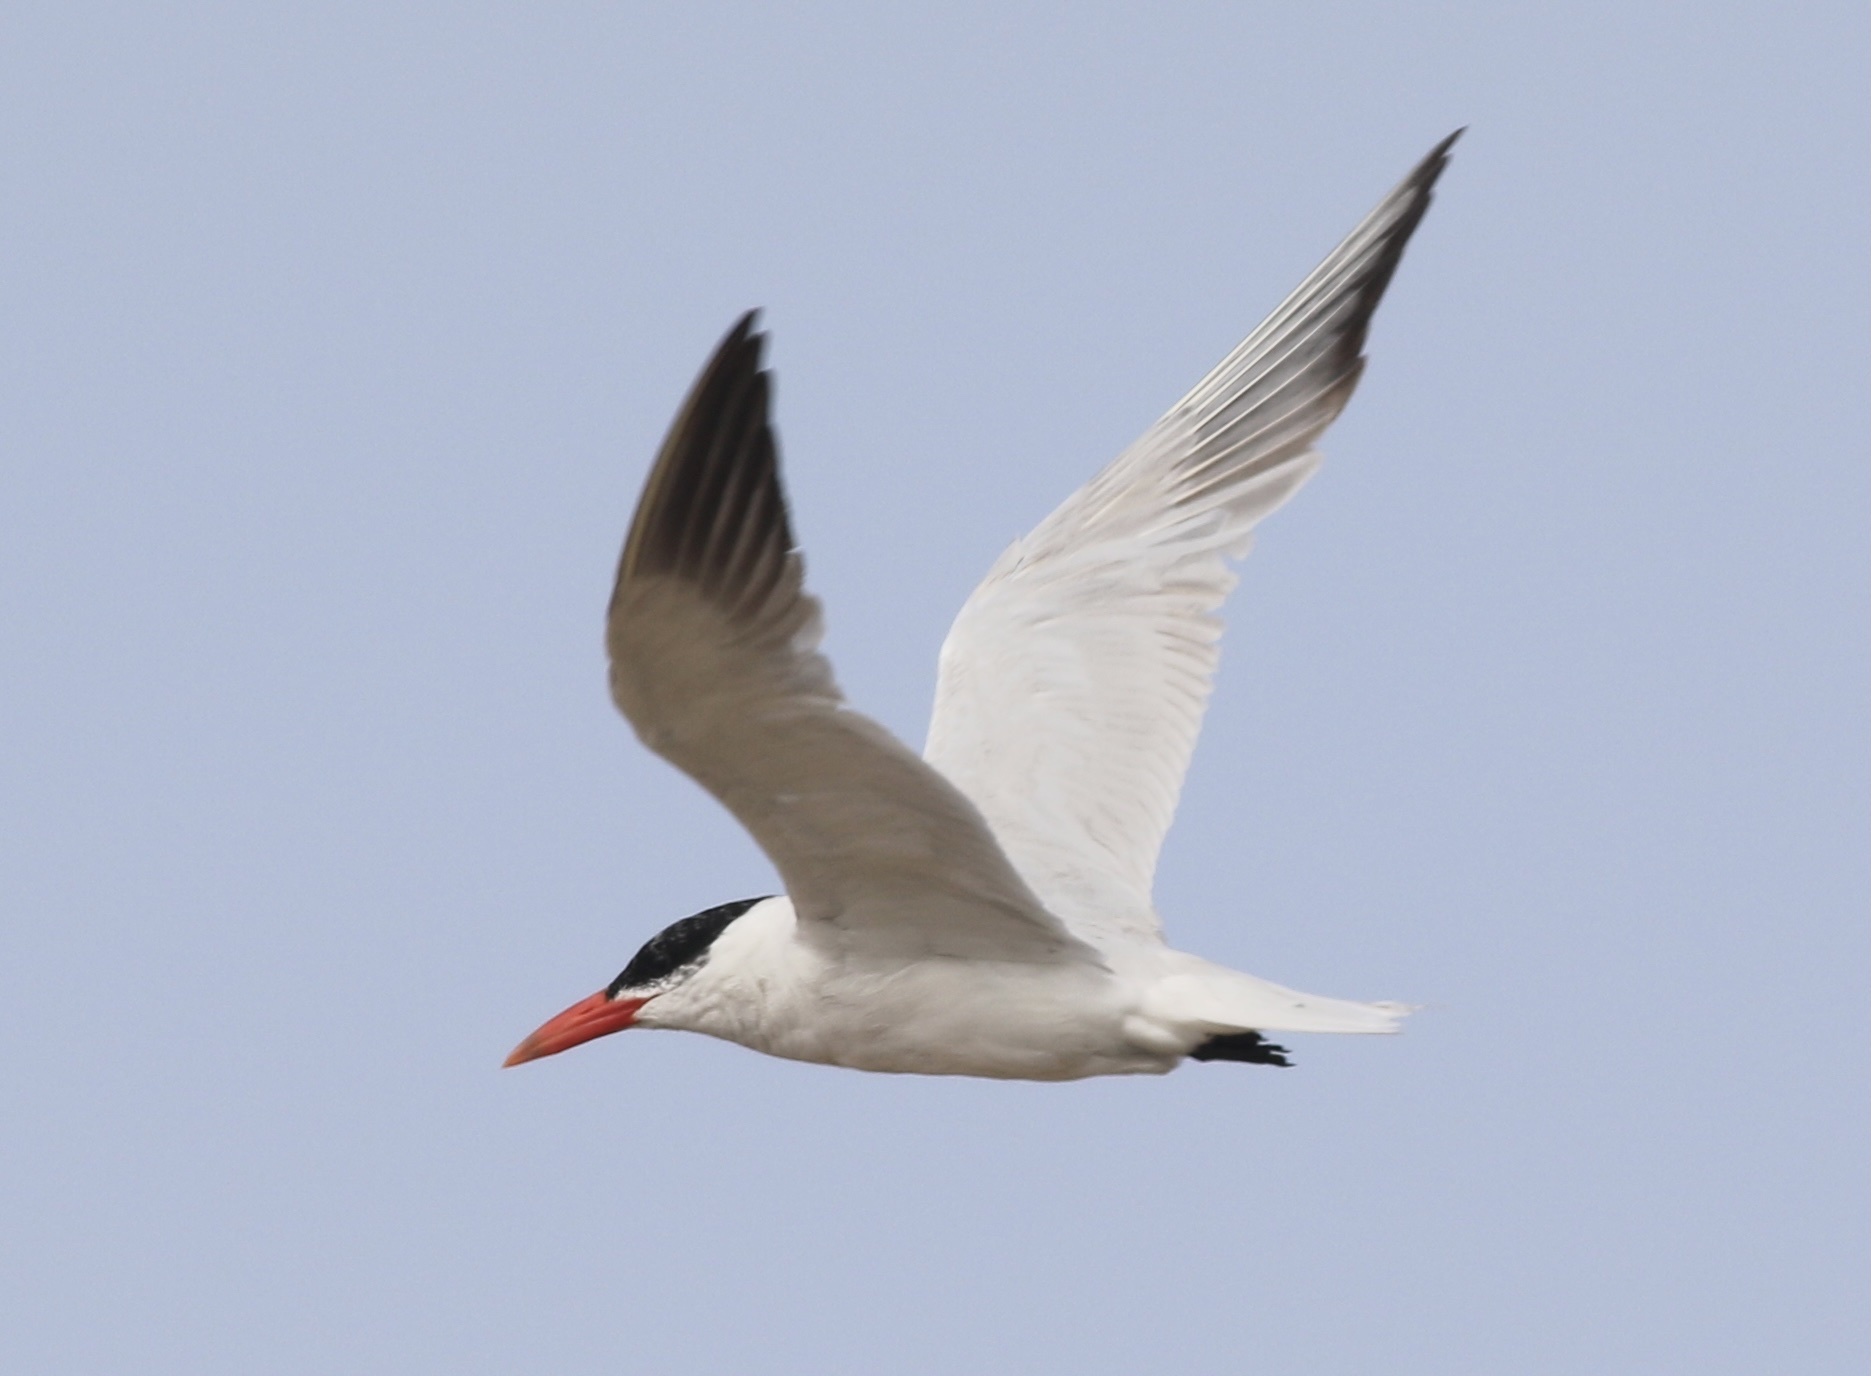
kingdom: Animalia
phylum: Chordata
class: Aves
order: Charadriiformes
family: Laridae
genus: Hydroprogne
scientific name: Hydroprogne caspia
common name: Caspian tern
